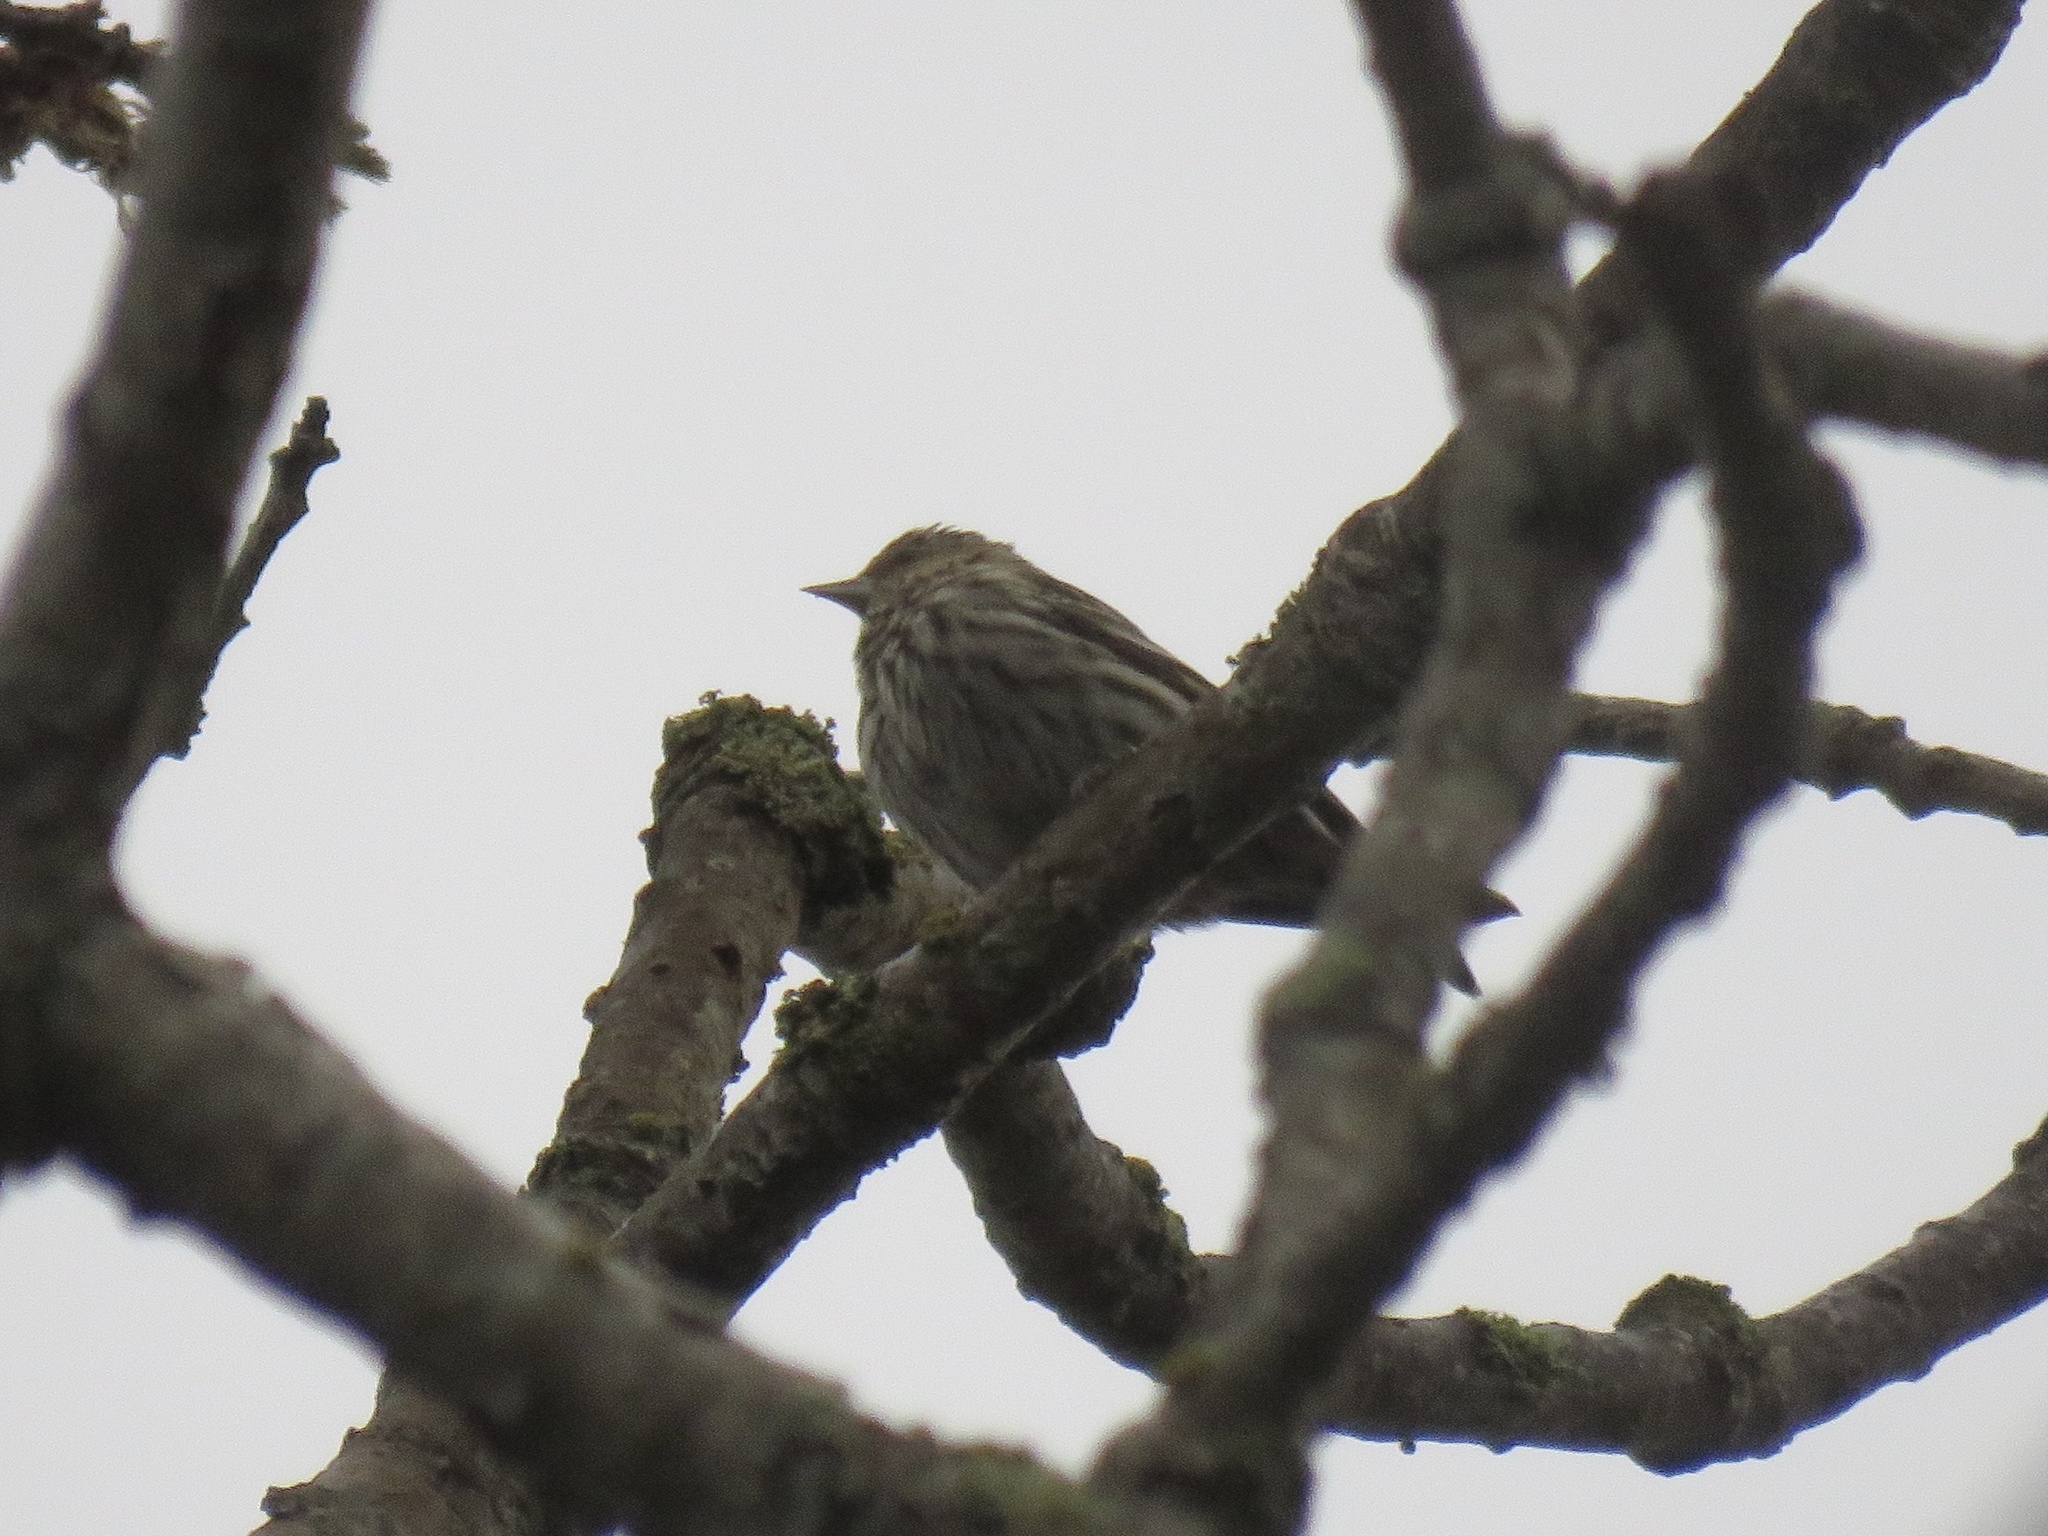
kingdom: Animalia
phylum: Chordata
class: Aves
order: Passeriformes
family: Fringillidae
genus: Spinus
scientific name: Spinus pinus
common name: Pine siskin
